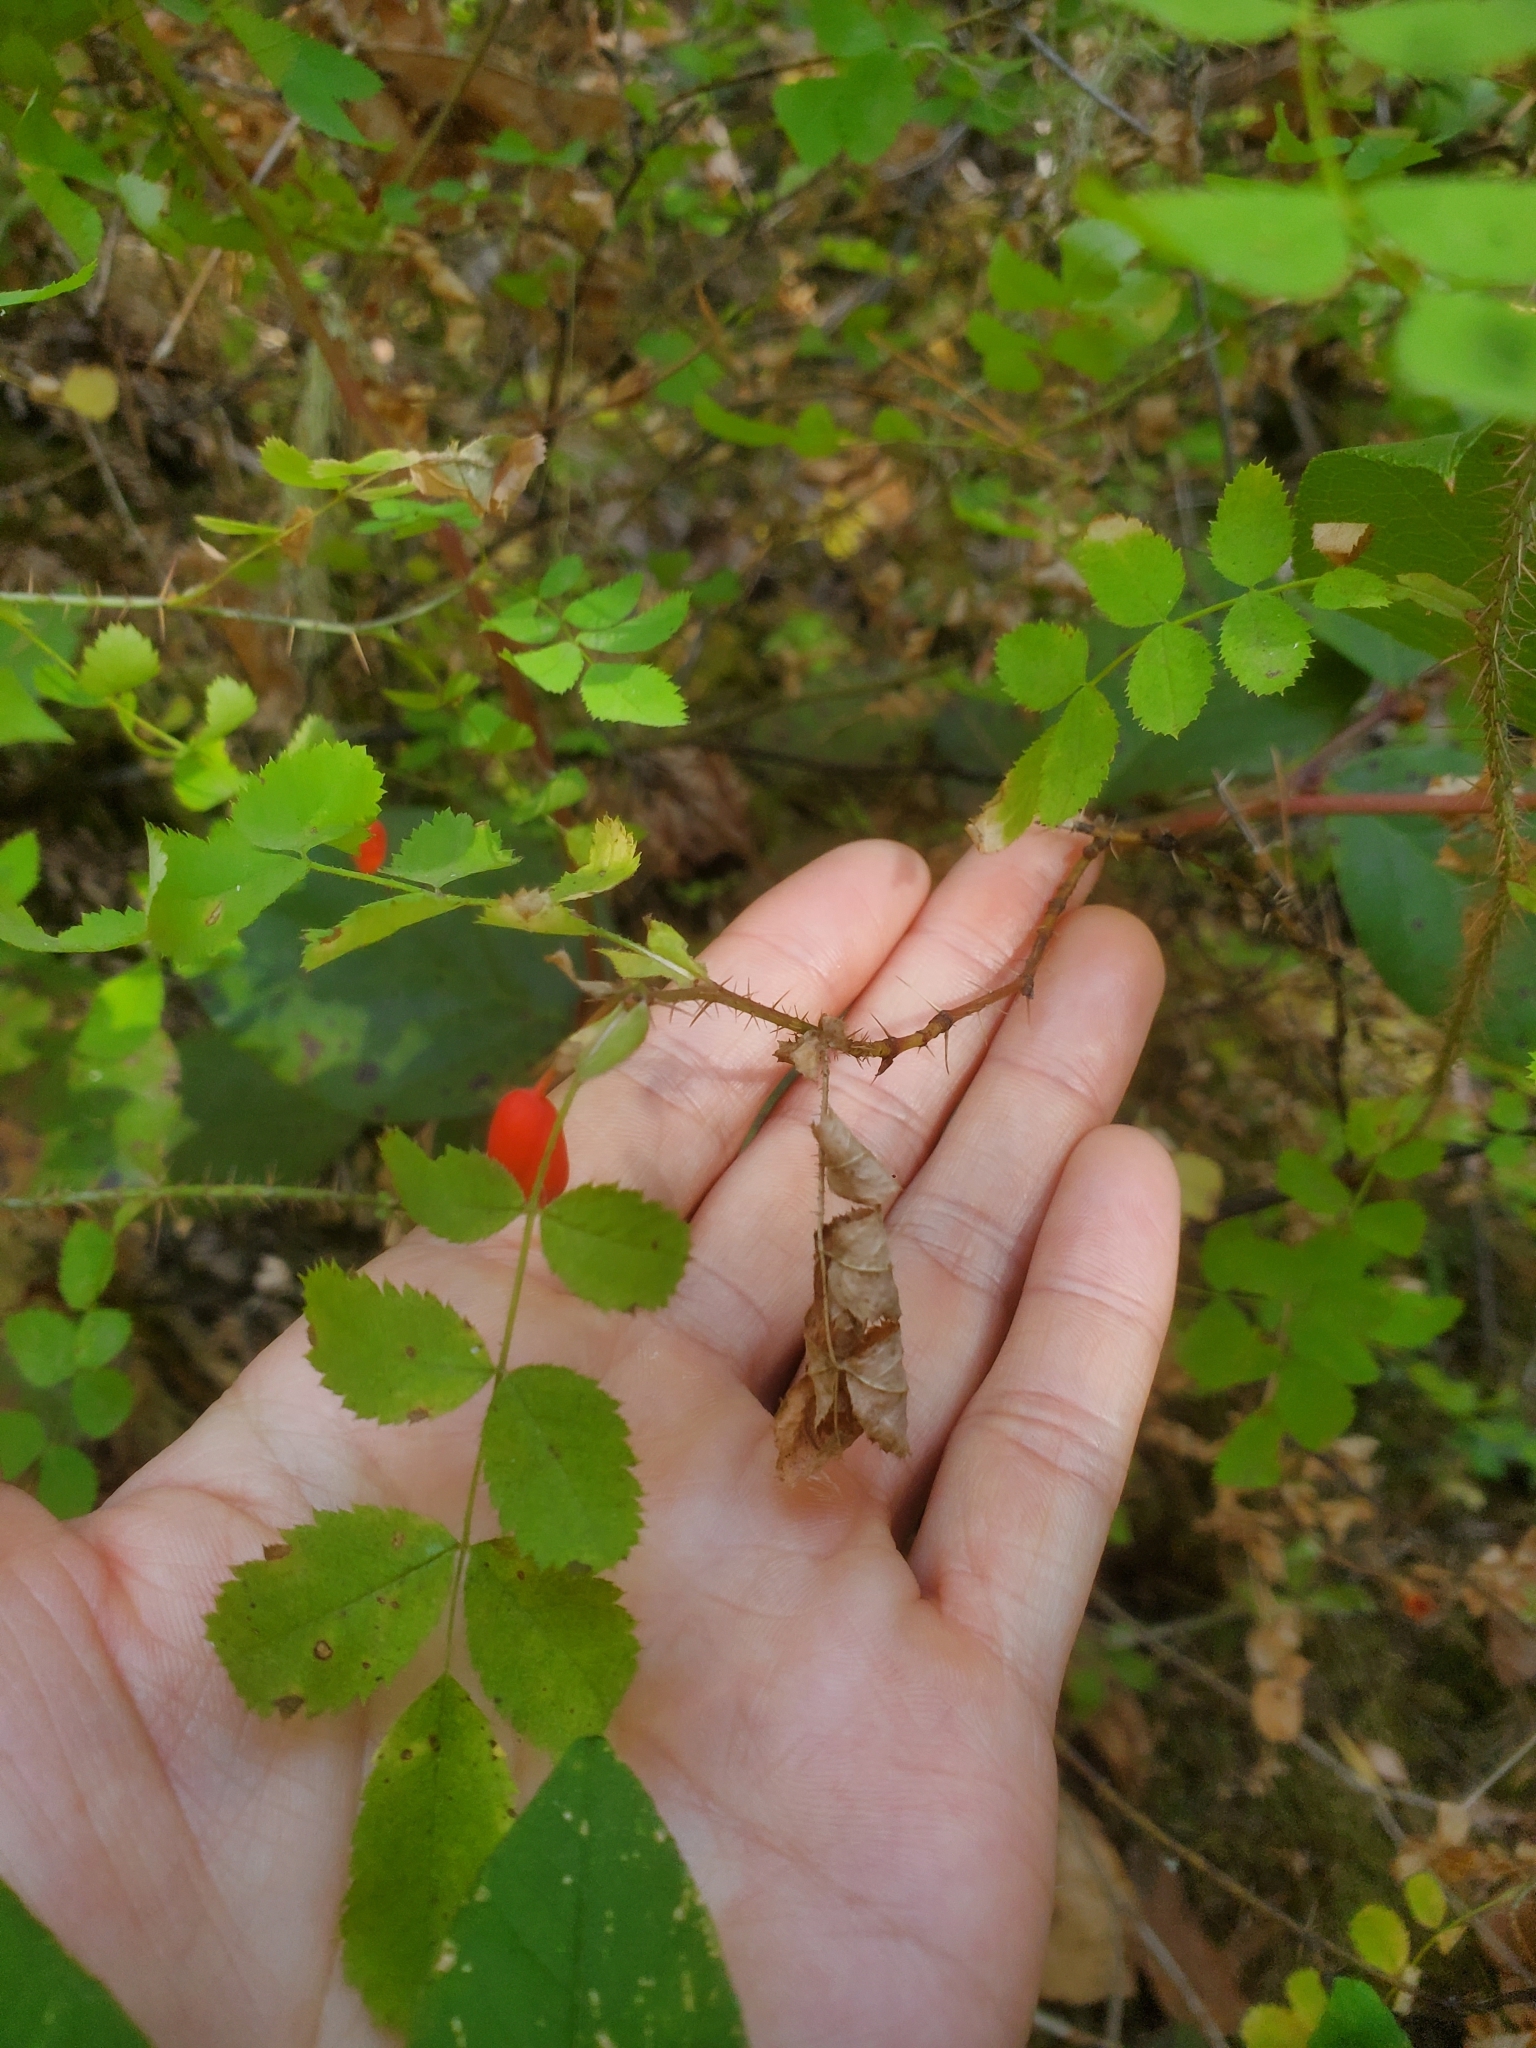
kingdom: Plantae
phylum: Tracheophyta
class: Magnoliopsida
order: Rosales
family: Rosaceae
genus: Rosa
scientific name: Rosa gymnocarpa
